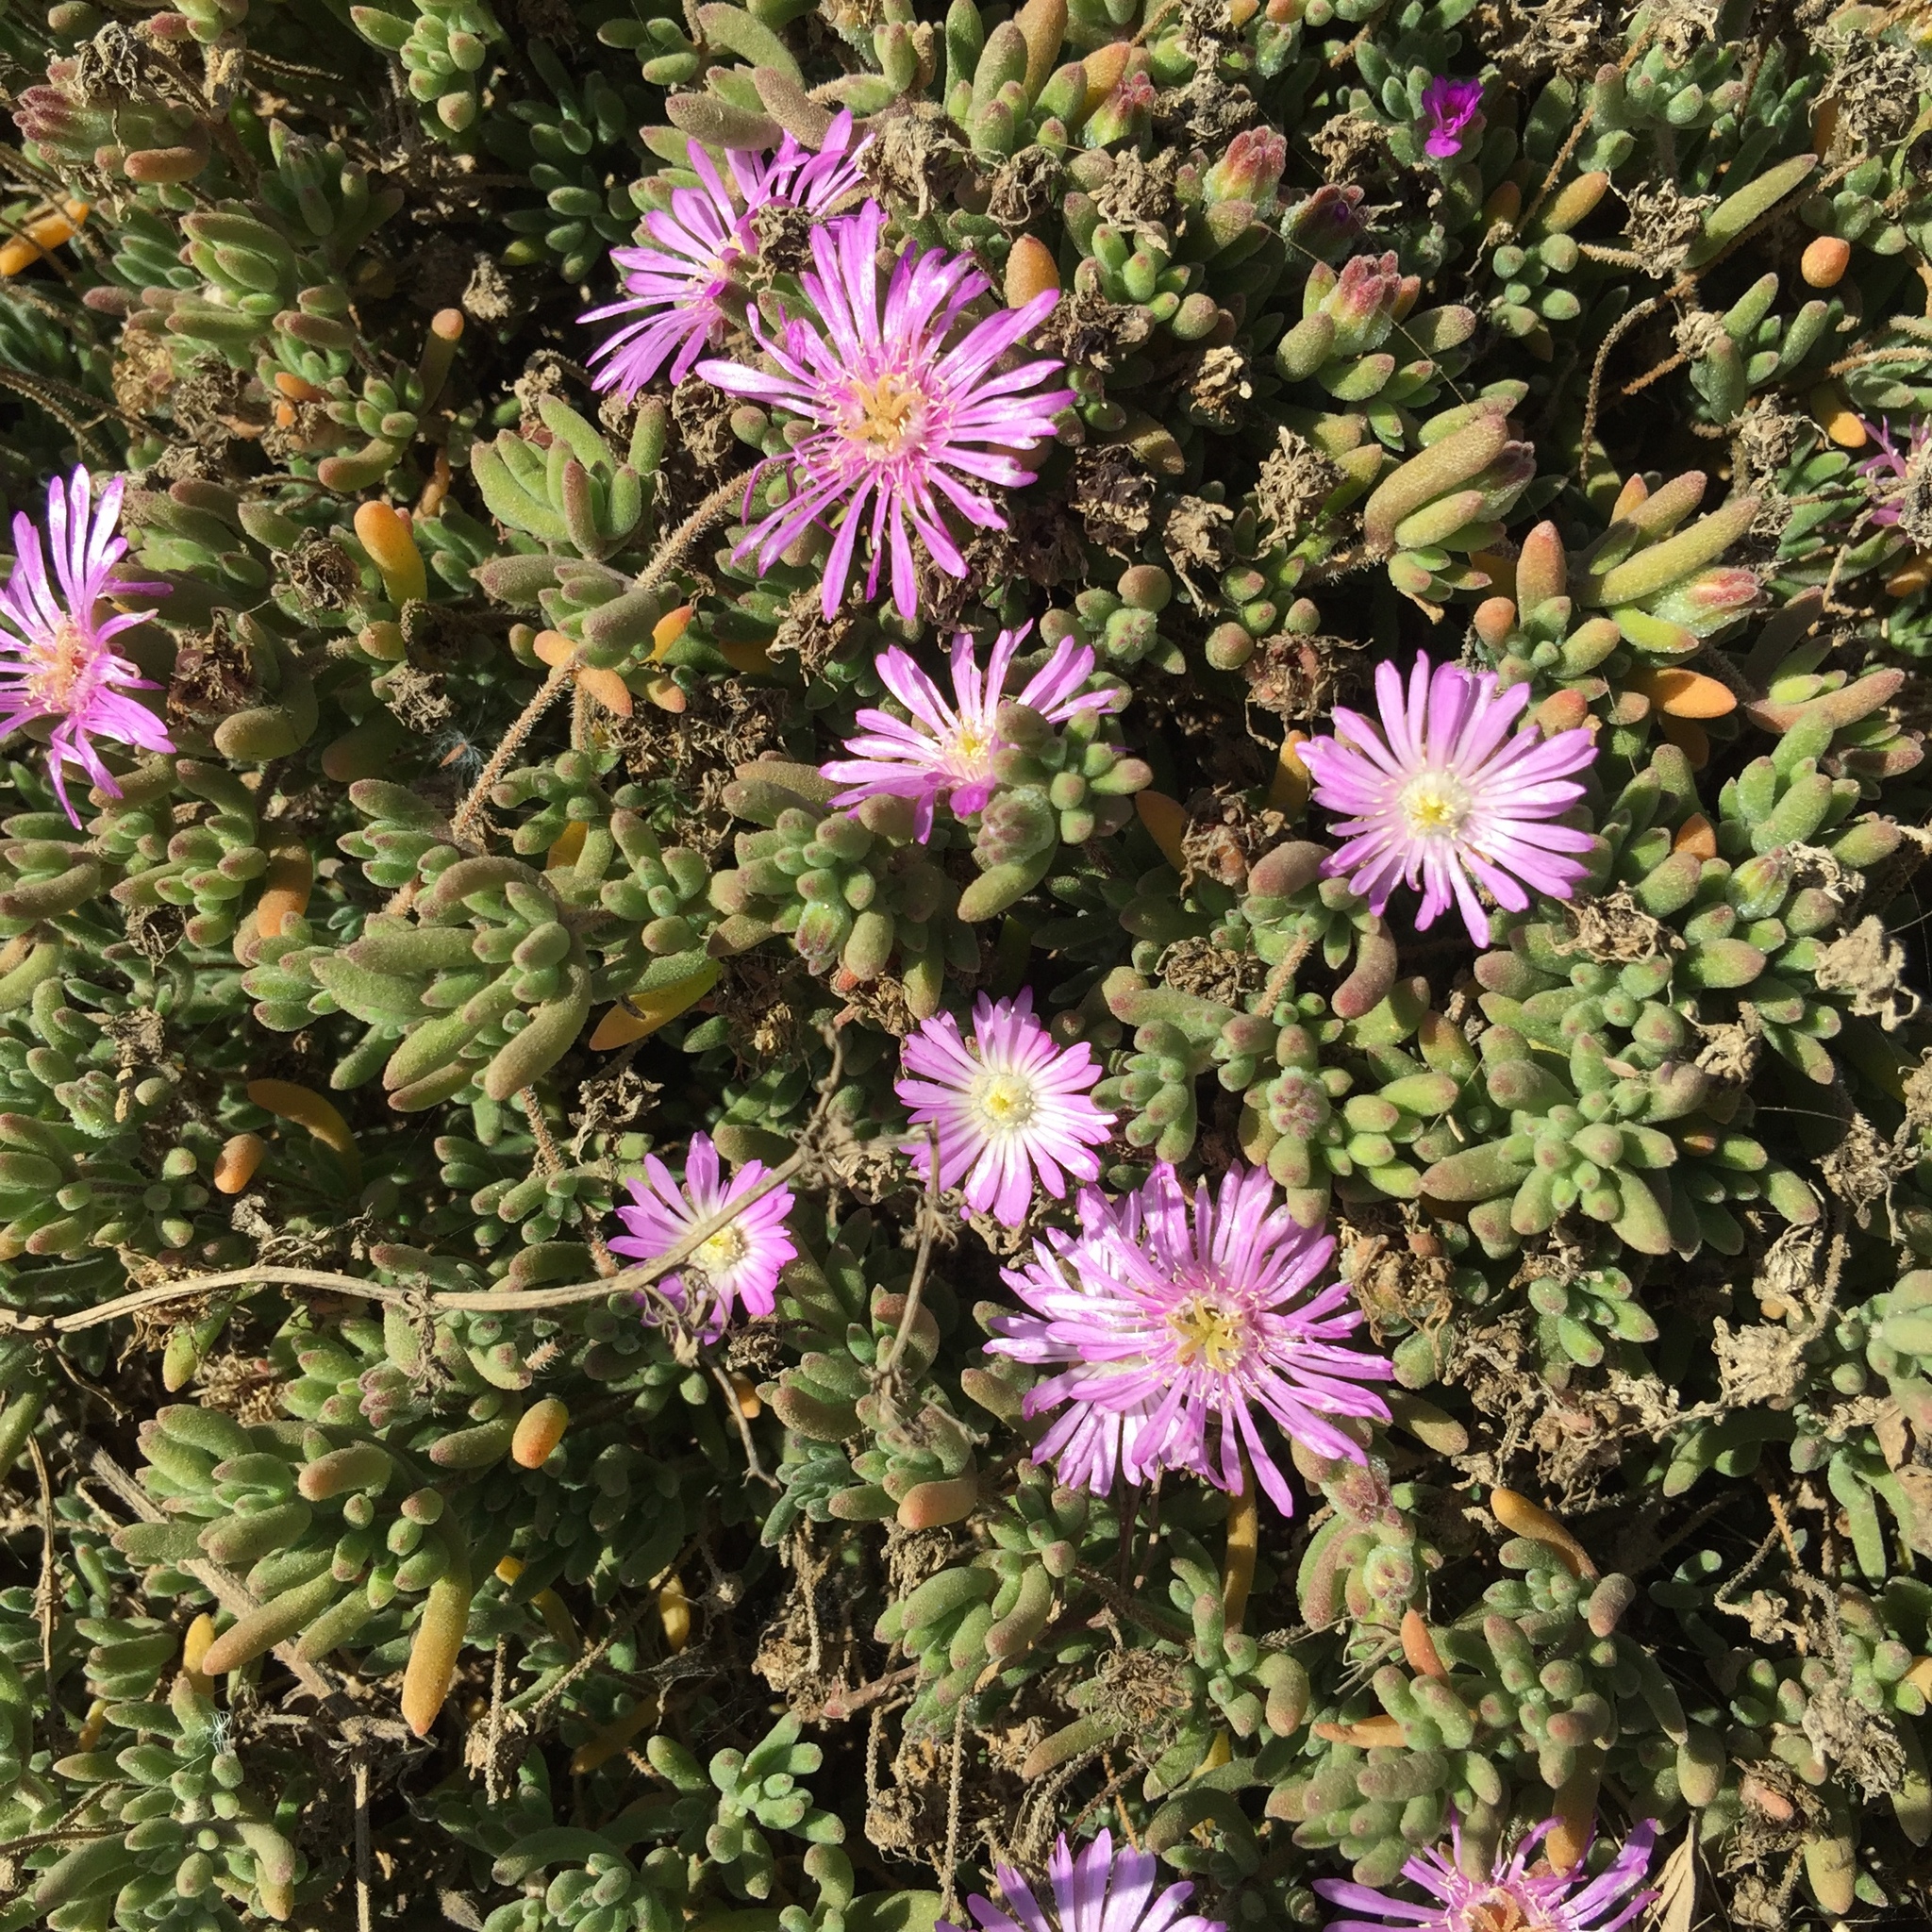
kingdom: Plantae
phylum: Tracheophyta
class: Magnoliopsida
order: Caryophyllales
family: Aizoaceae
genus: Drosanthemum
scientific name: Drosanthemum floribundum
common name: Pale dewplant
